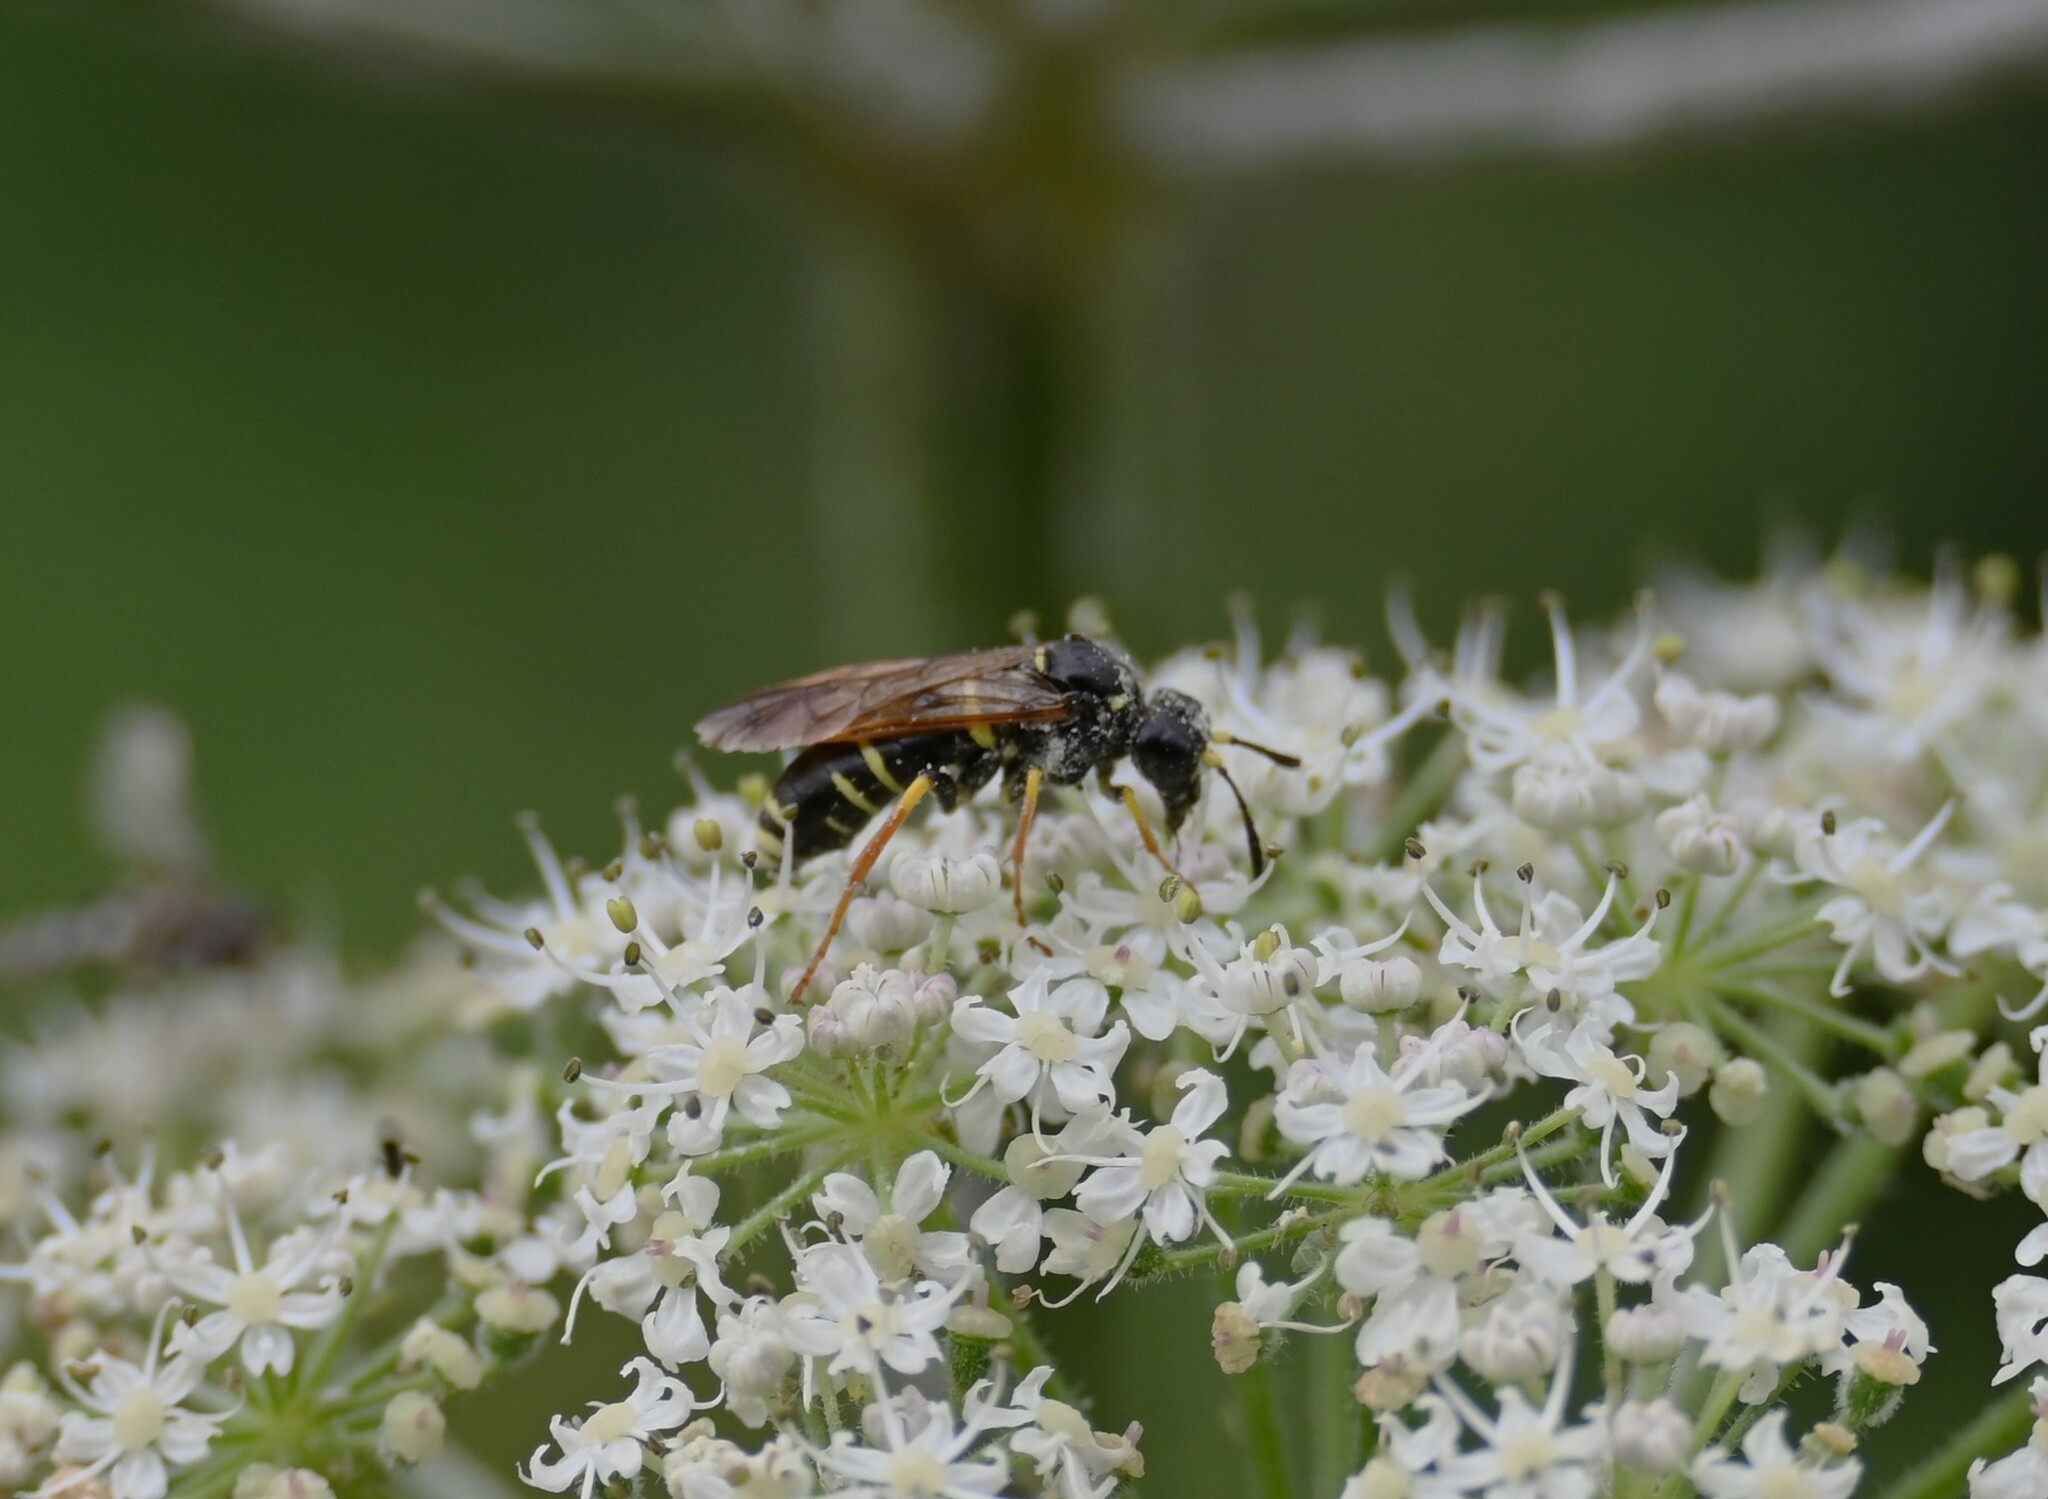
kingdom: Animalia
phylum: Arthropoda
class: Insecta
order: Hymenoptera
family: Tenthredinidae
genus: Tenthredo
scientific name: Tenthredo omissa
